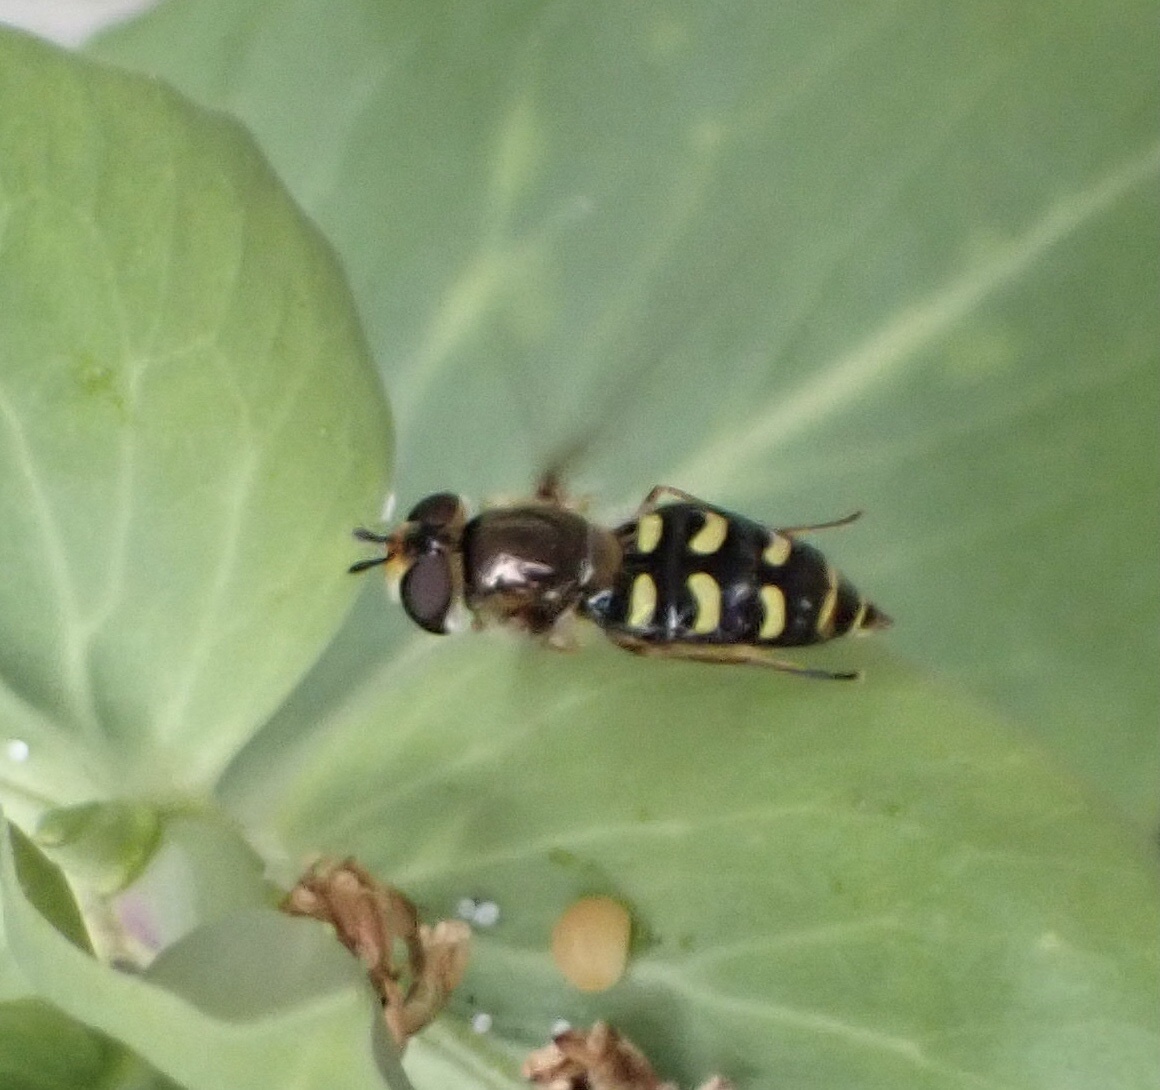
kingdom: Animalia
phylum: Arthropoda
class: Insecta
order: Diptera
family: Syrphidae
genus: Eupeodes
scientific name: Eupeodes
